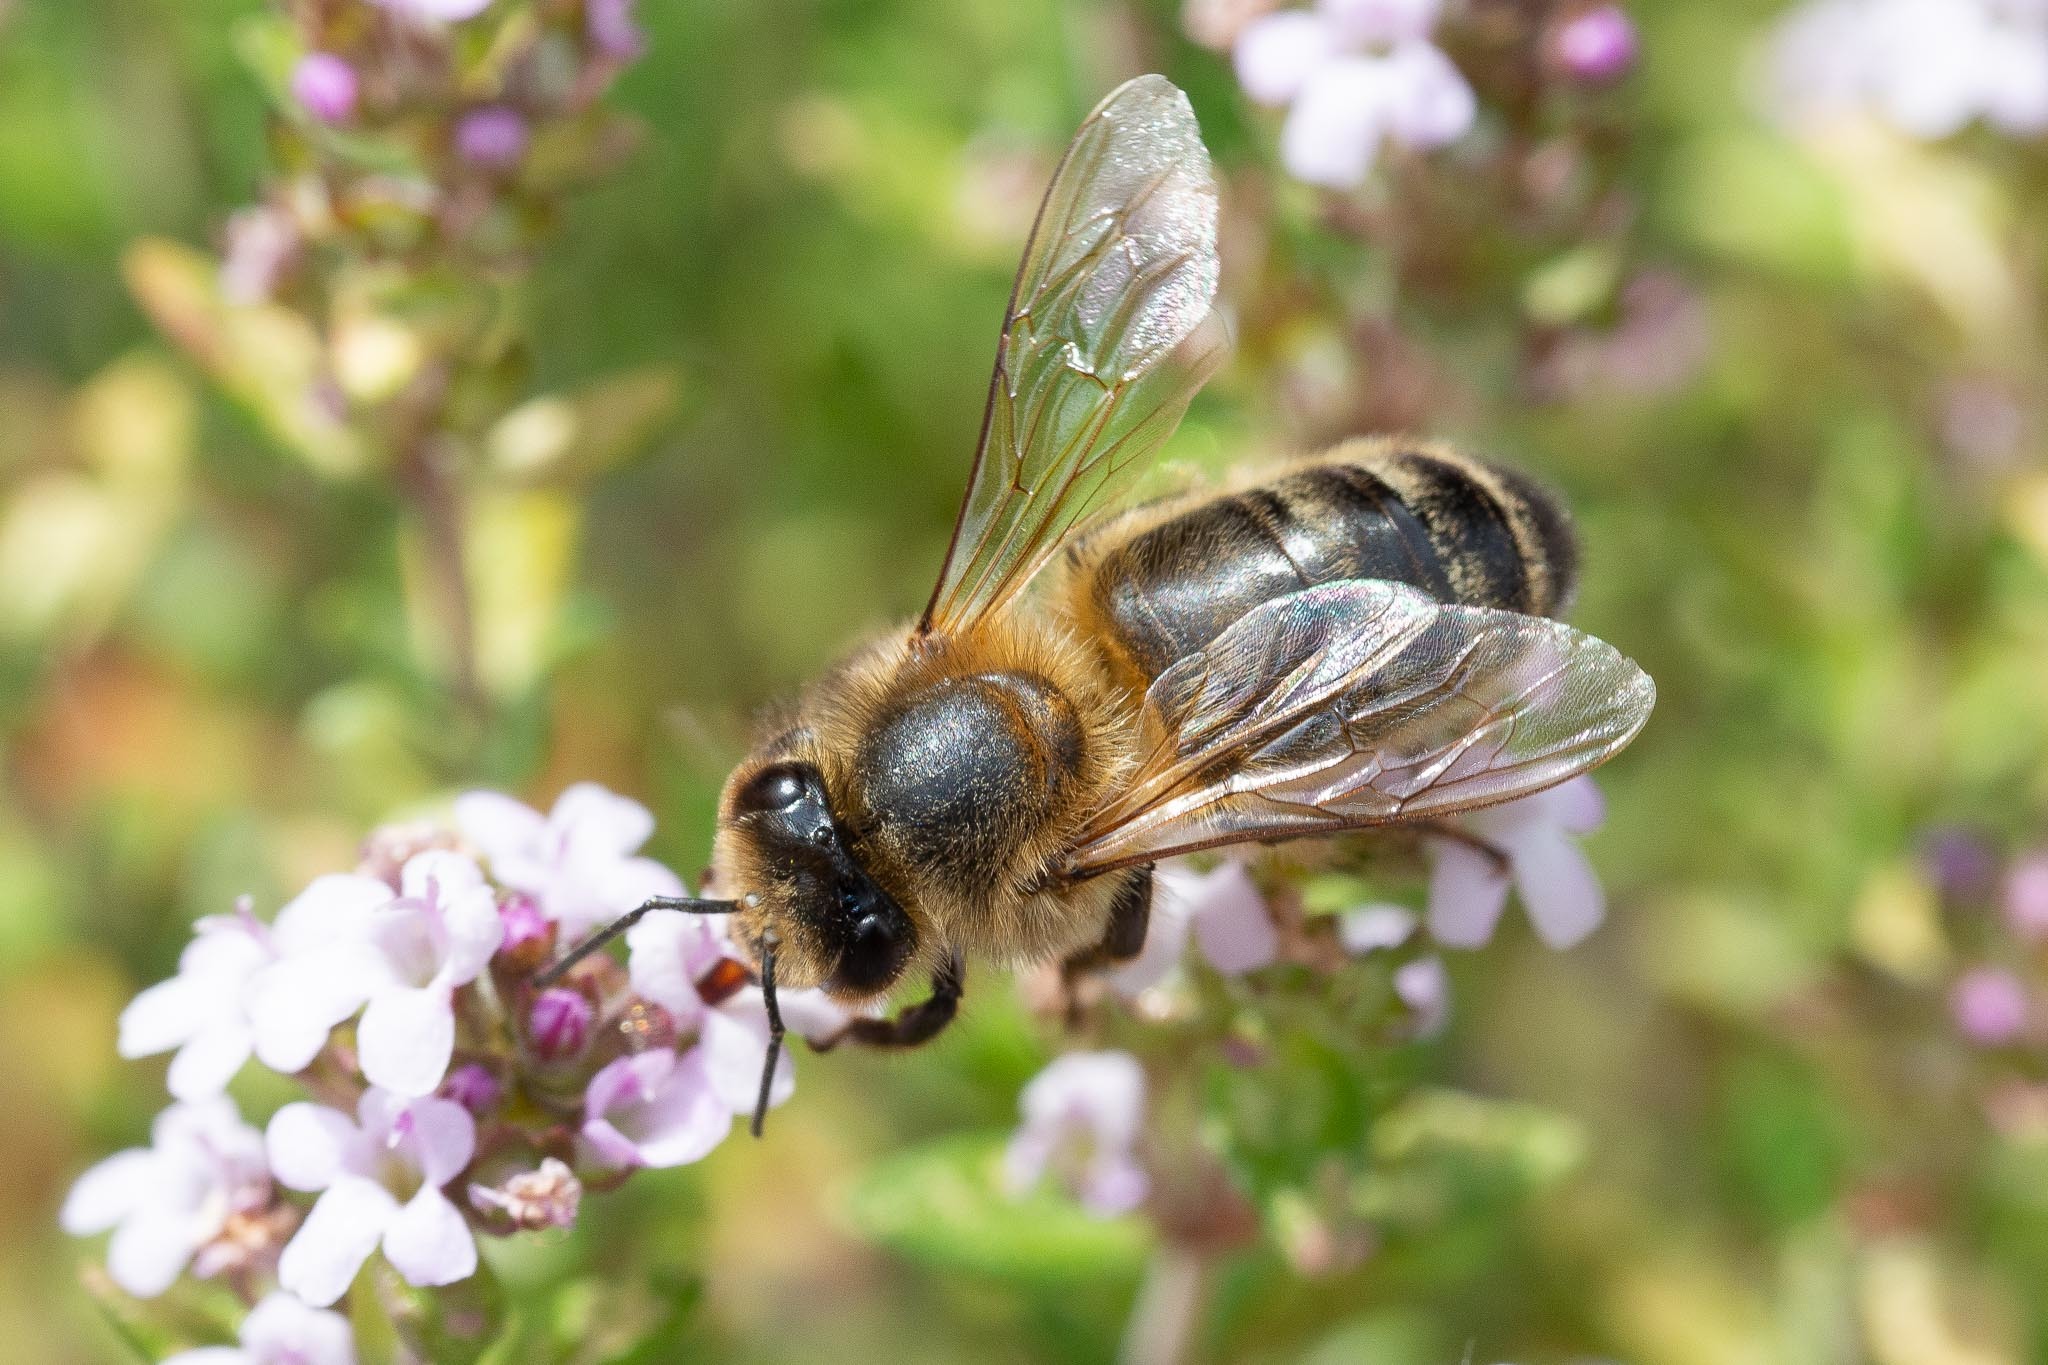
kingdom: Animalia
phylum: Arthropoda
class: Insecta
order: Hymenoptera
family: Apidae
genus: Apis
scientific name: Apis mellifera
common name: Honey bee
